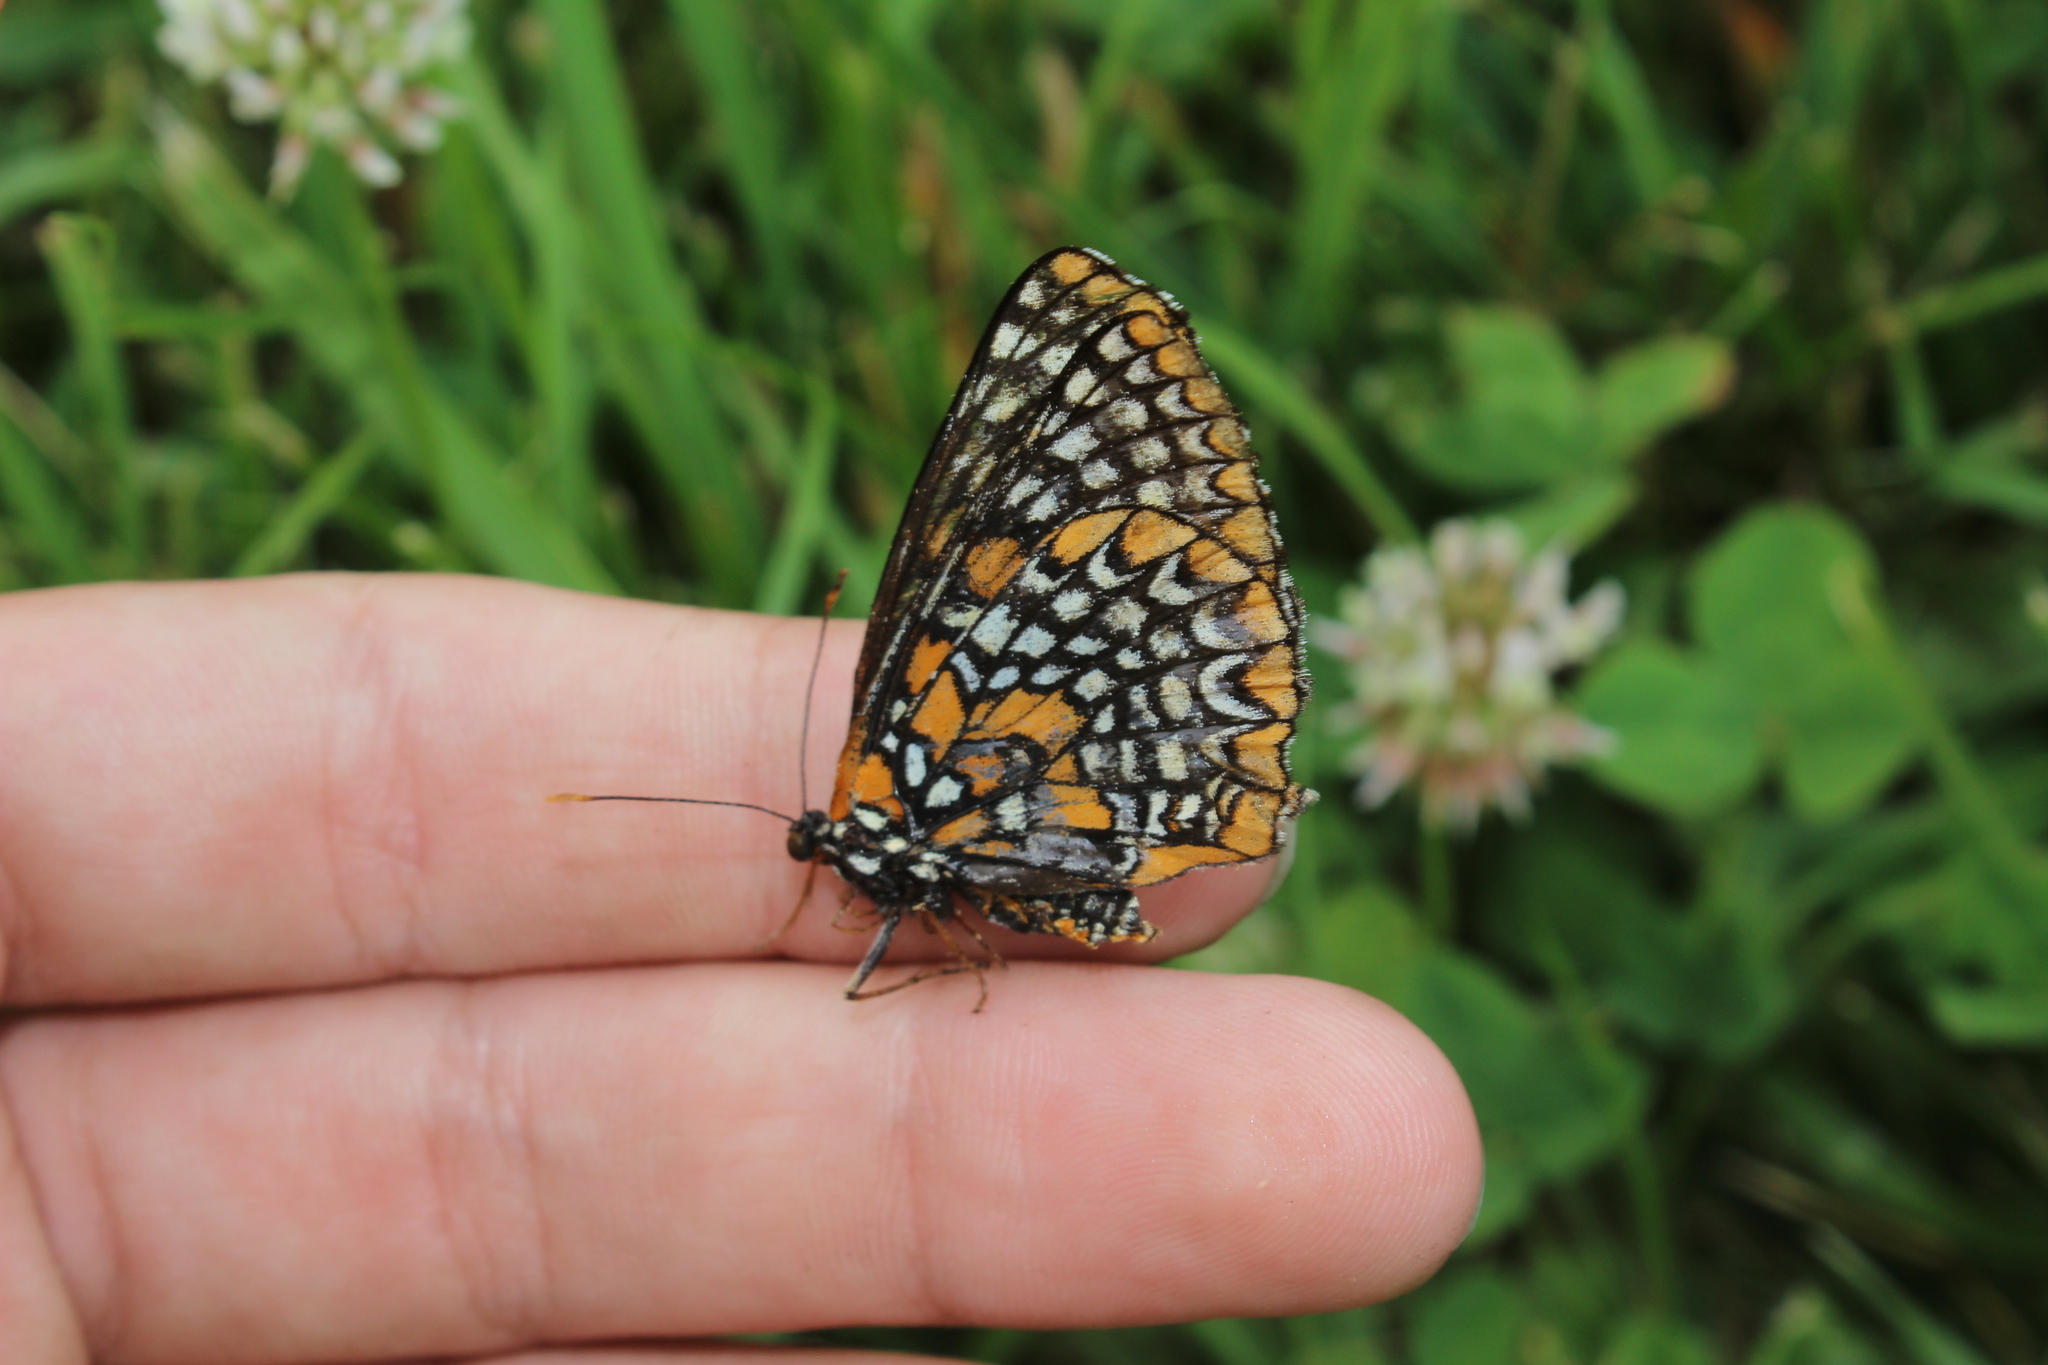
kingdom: Animalia
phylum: Arthropoda
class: Insecta
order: Lepidoptera
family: Nymphalidae
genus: Euphydryas
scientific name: Euphydryas phaeton
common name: Baltimore checkerspot
